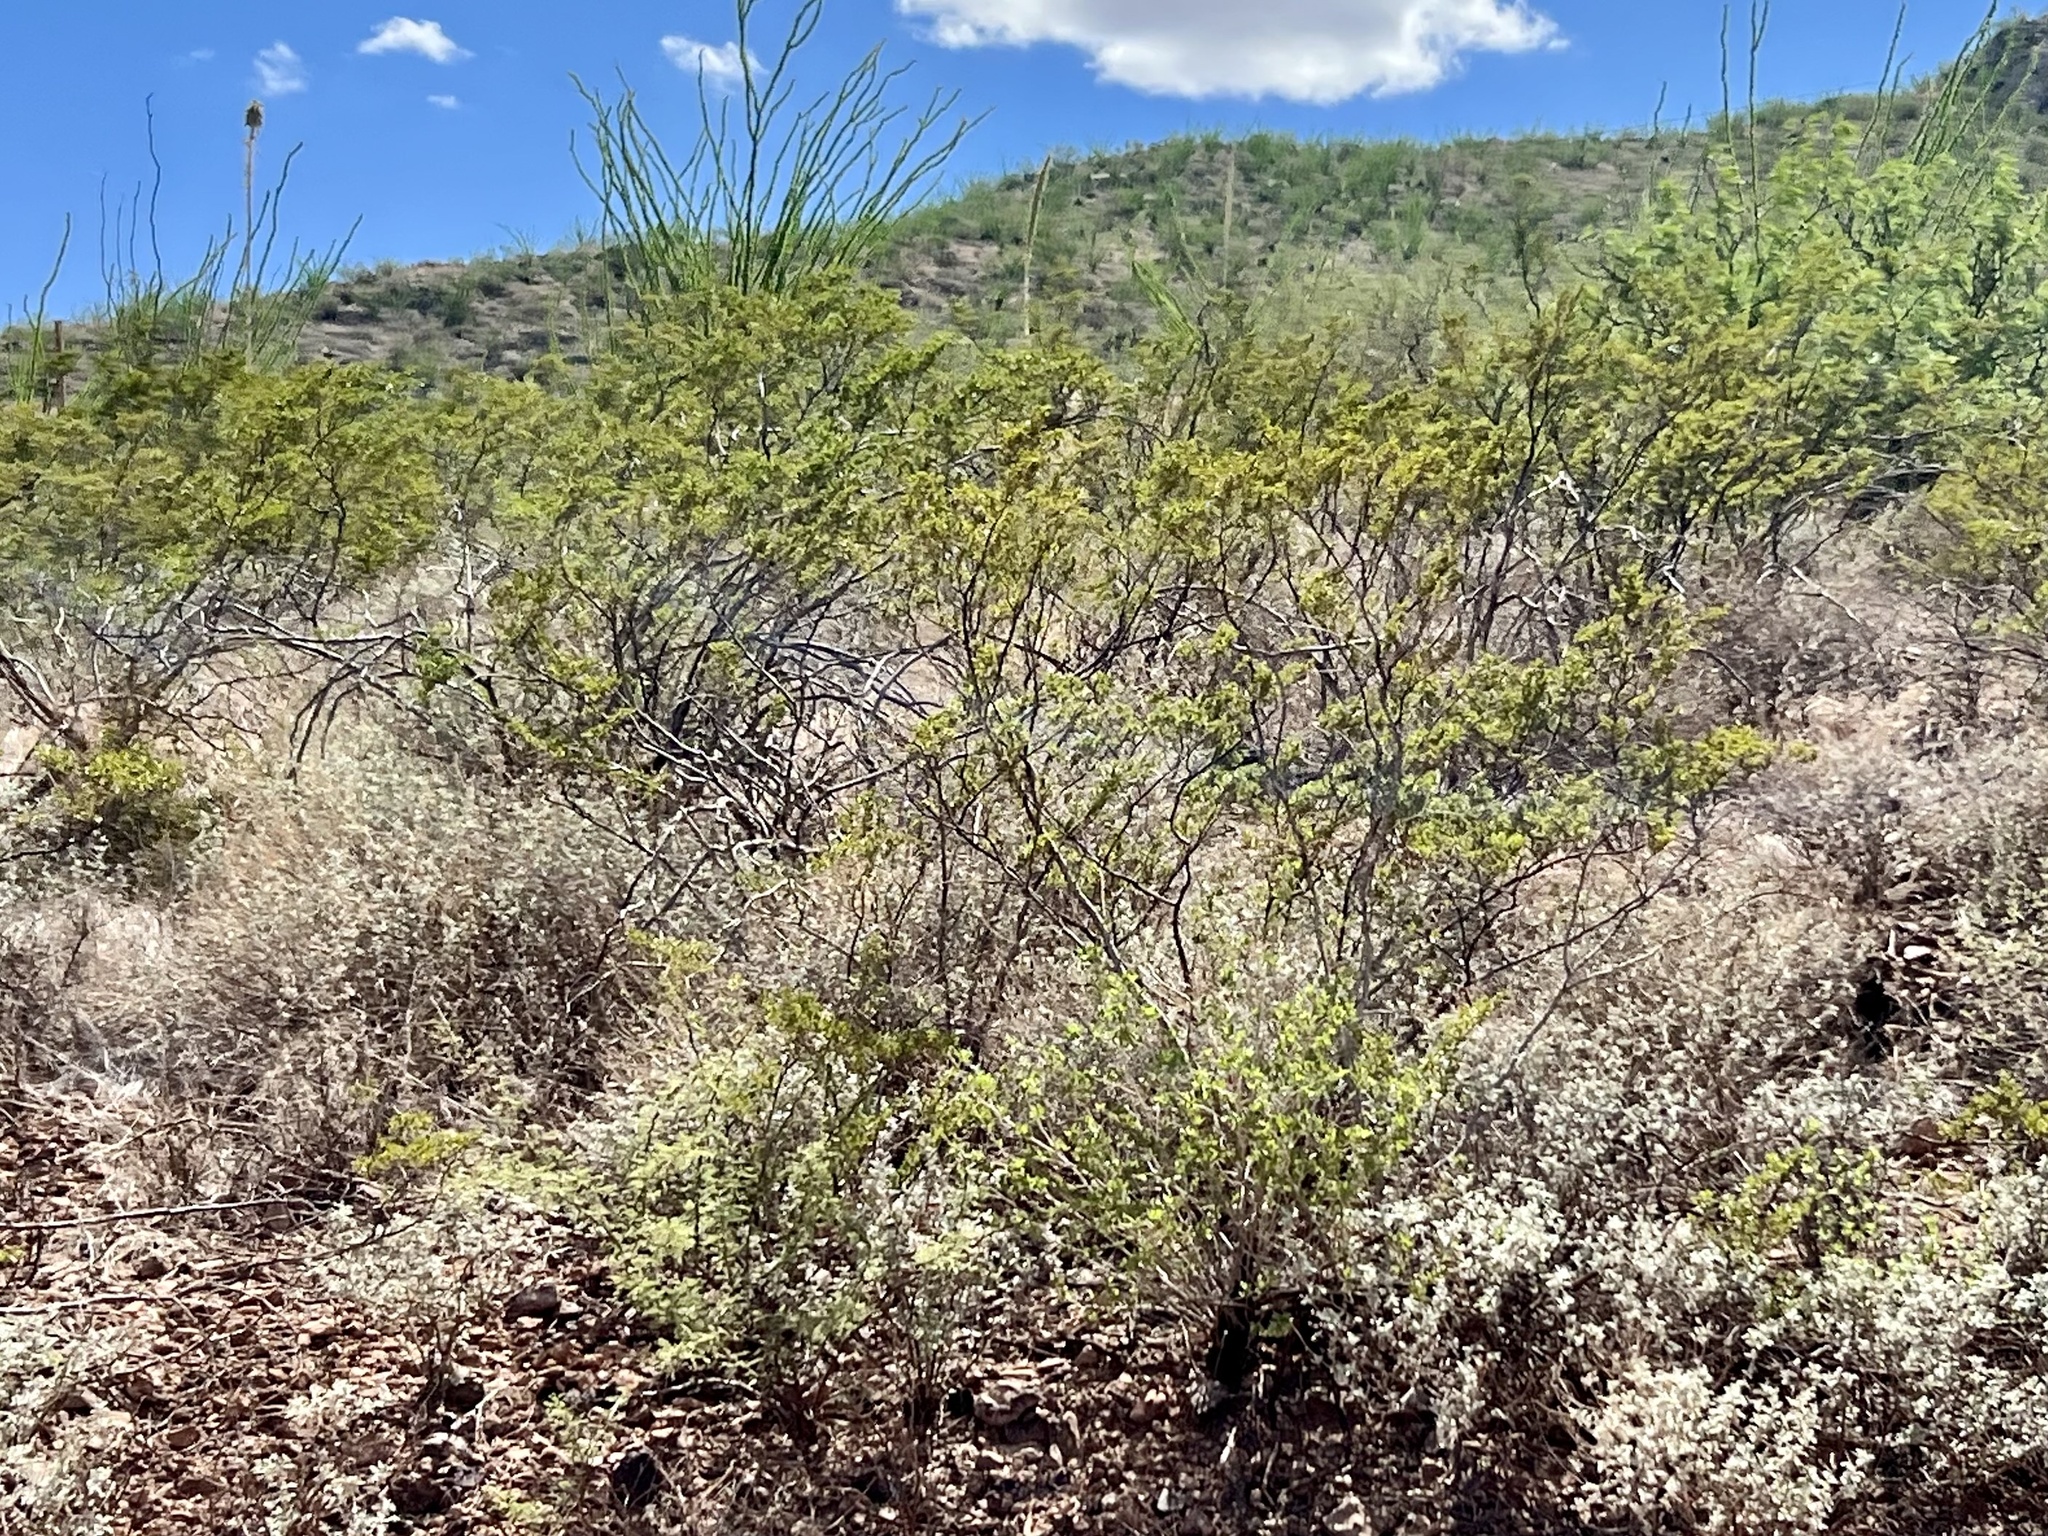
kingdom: Plantae
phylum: Tracheophyta
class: Magnoliopsida
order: Zygophyllales
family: Zygophyllaceae
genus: Larrea
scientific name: Larrea tridentata
